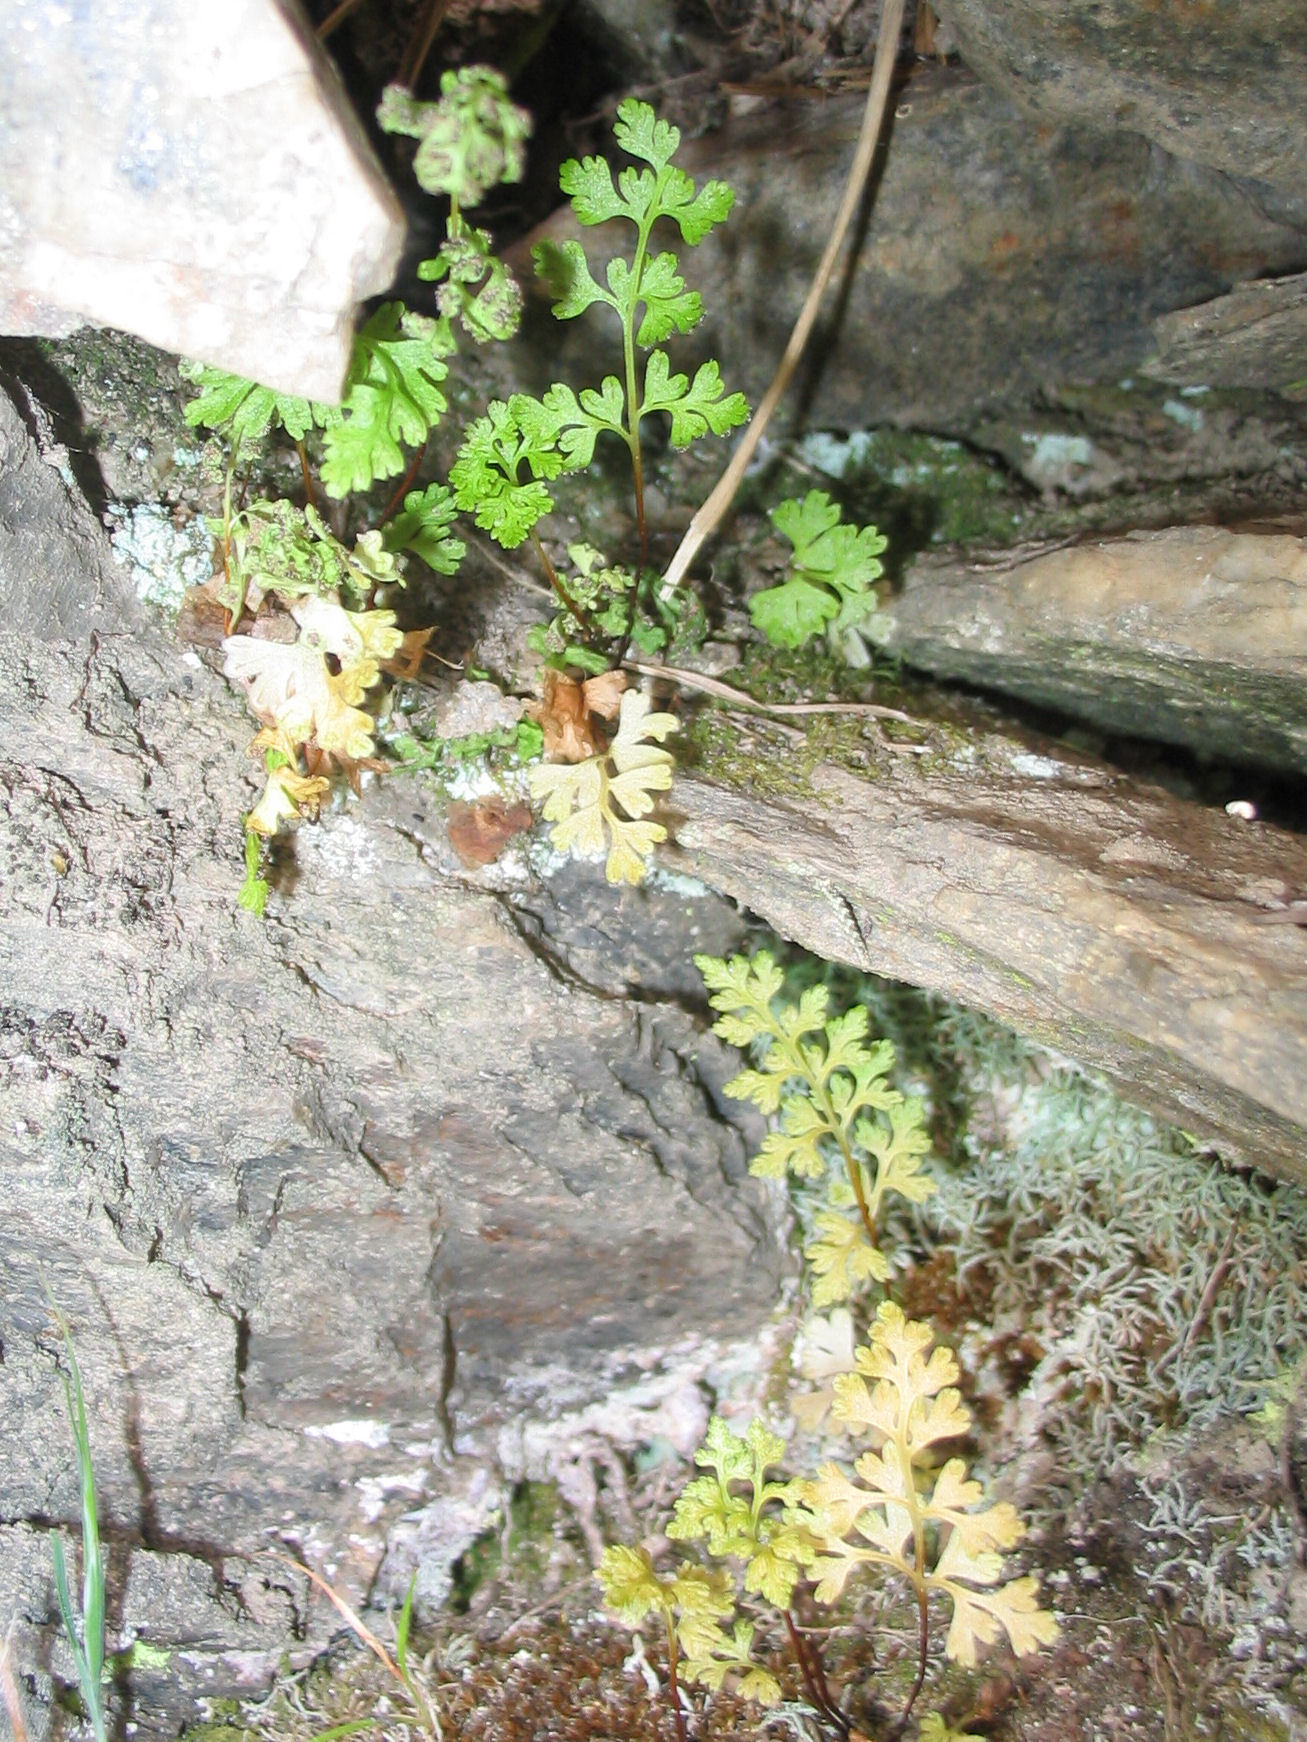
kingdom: Plantae
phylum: Tracheophyta
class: Polypodiopsida
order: Polypodiales
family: Pteridaceae
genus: Anogramma
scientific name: Anogramma leptophylla
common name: Jersey fern
